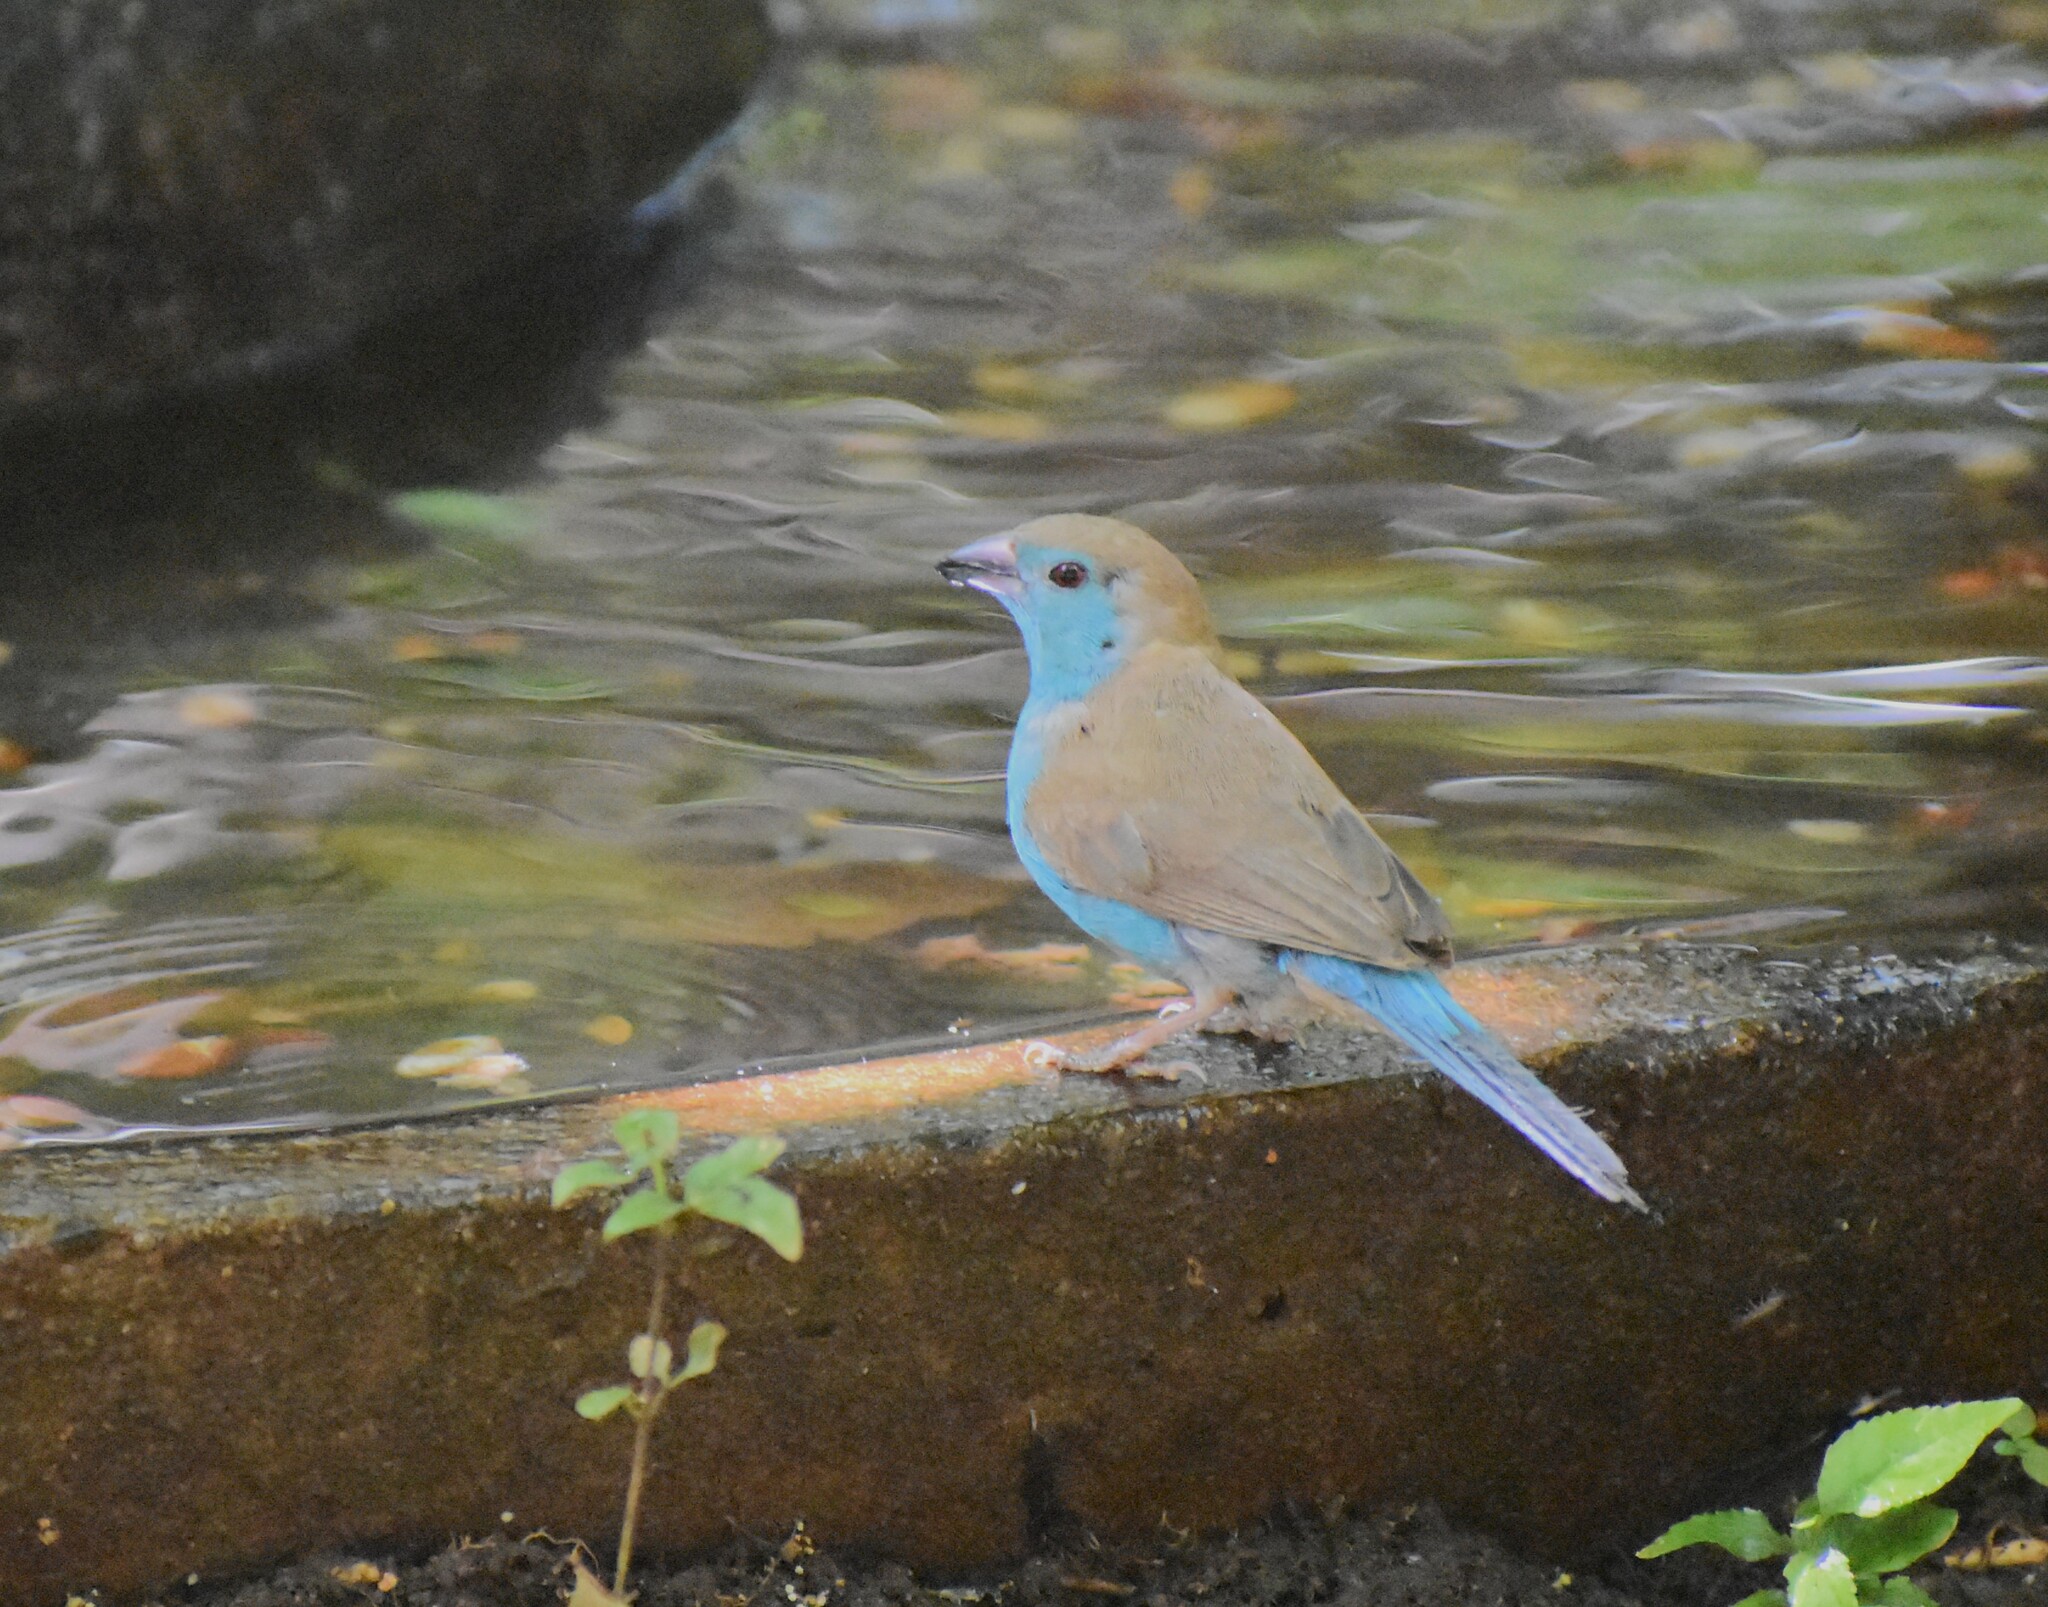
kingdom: Animalia
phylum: Chordata
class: Aves
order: Passeriformes
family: Estrildidae
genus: Uraeginthus
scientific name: Uraeginthus angolensis
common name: Blue waxbill
